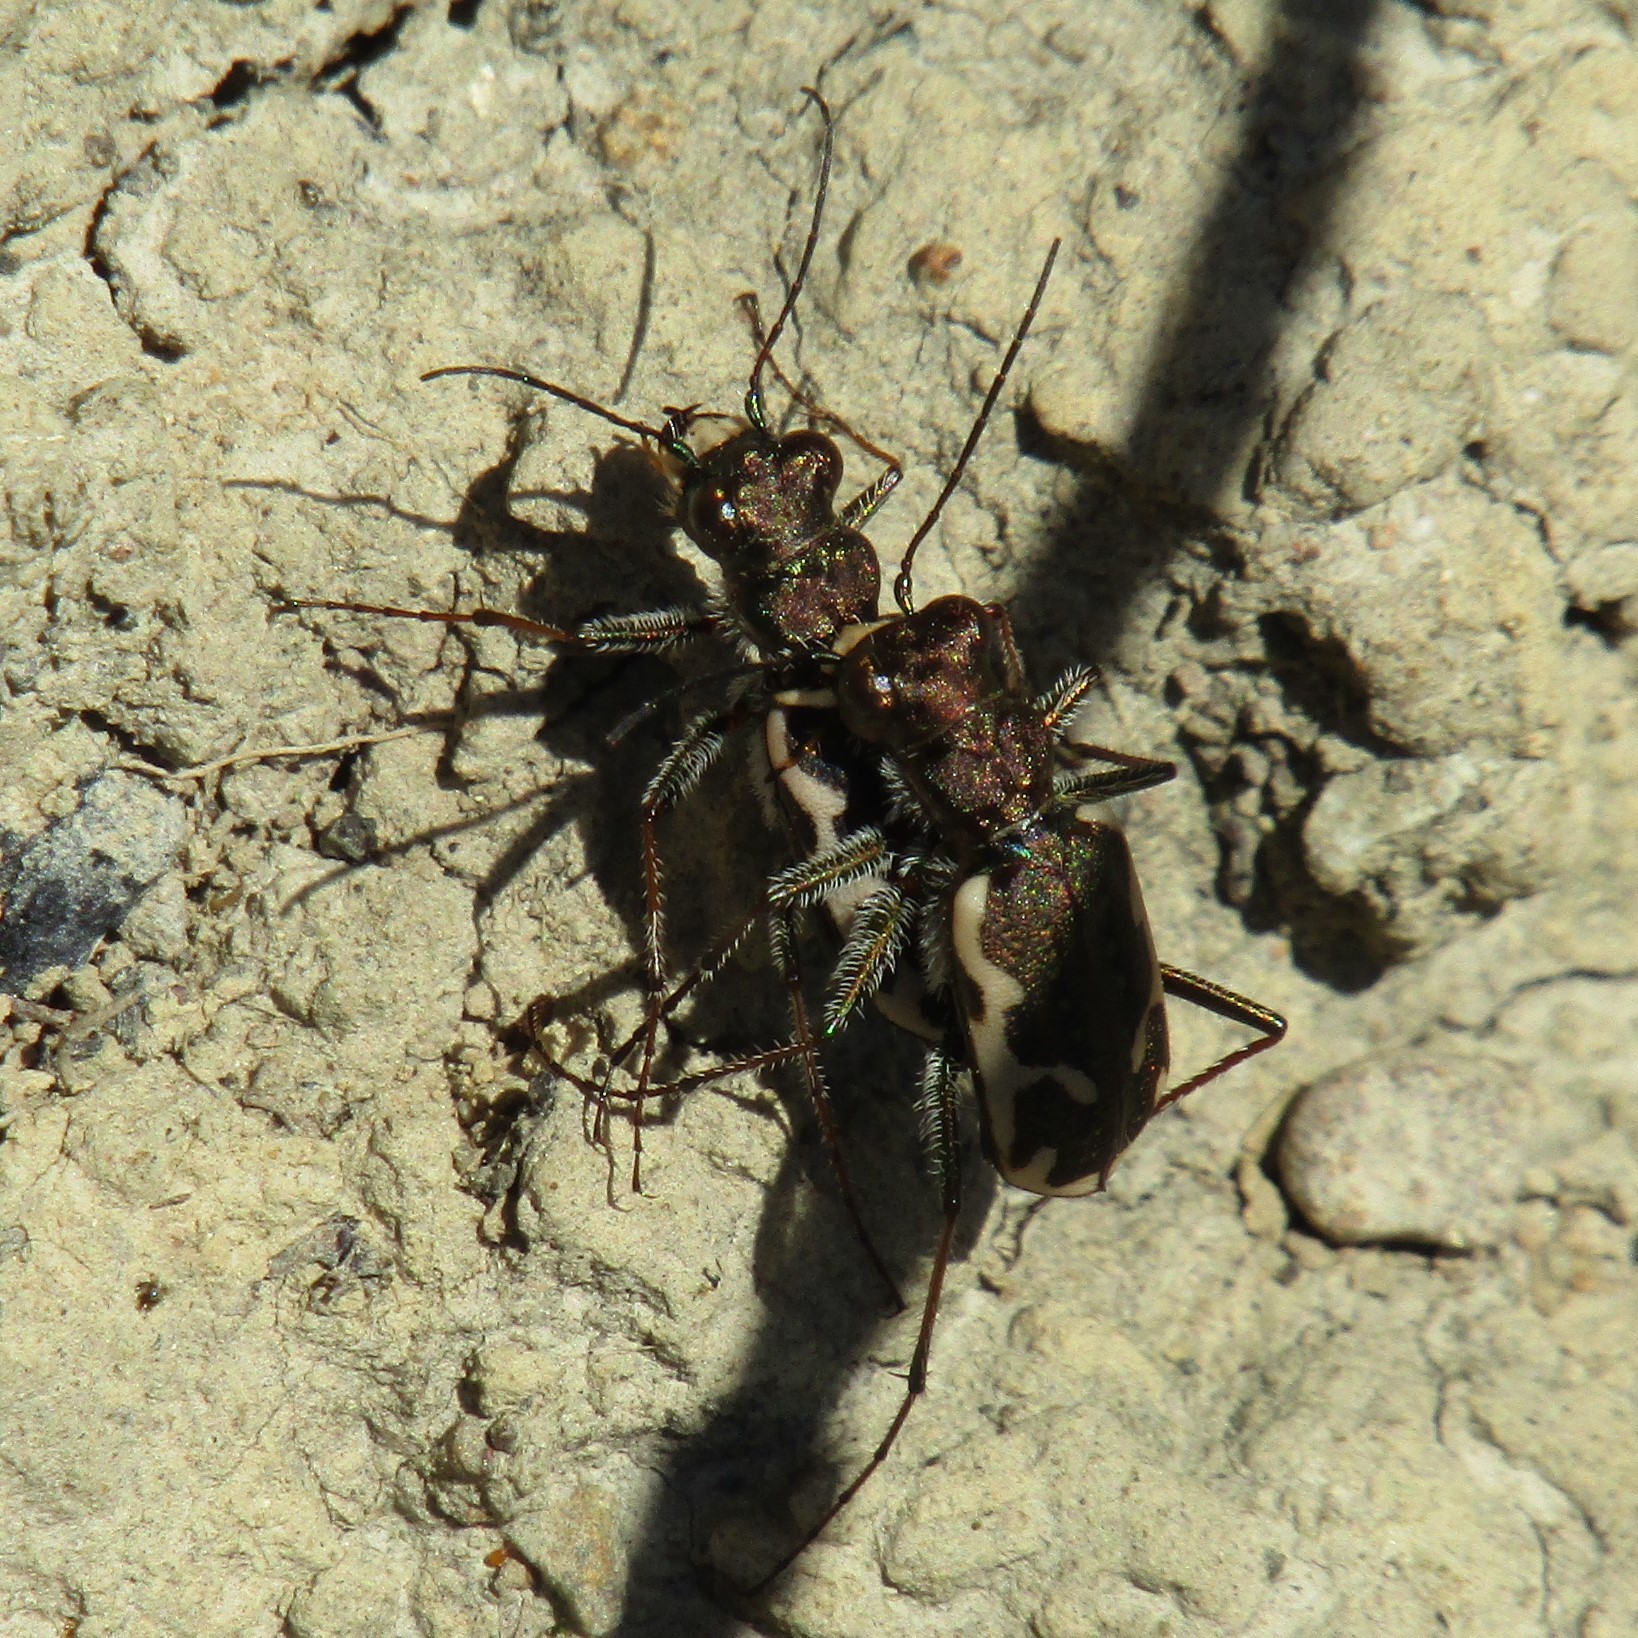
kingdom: Animalia
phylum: Arthropoda
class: Insecta
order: Coleoptera
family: Carabidae
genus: Neocicindela
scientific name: Neocicindela tuberculata
